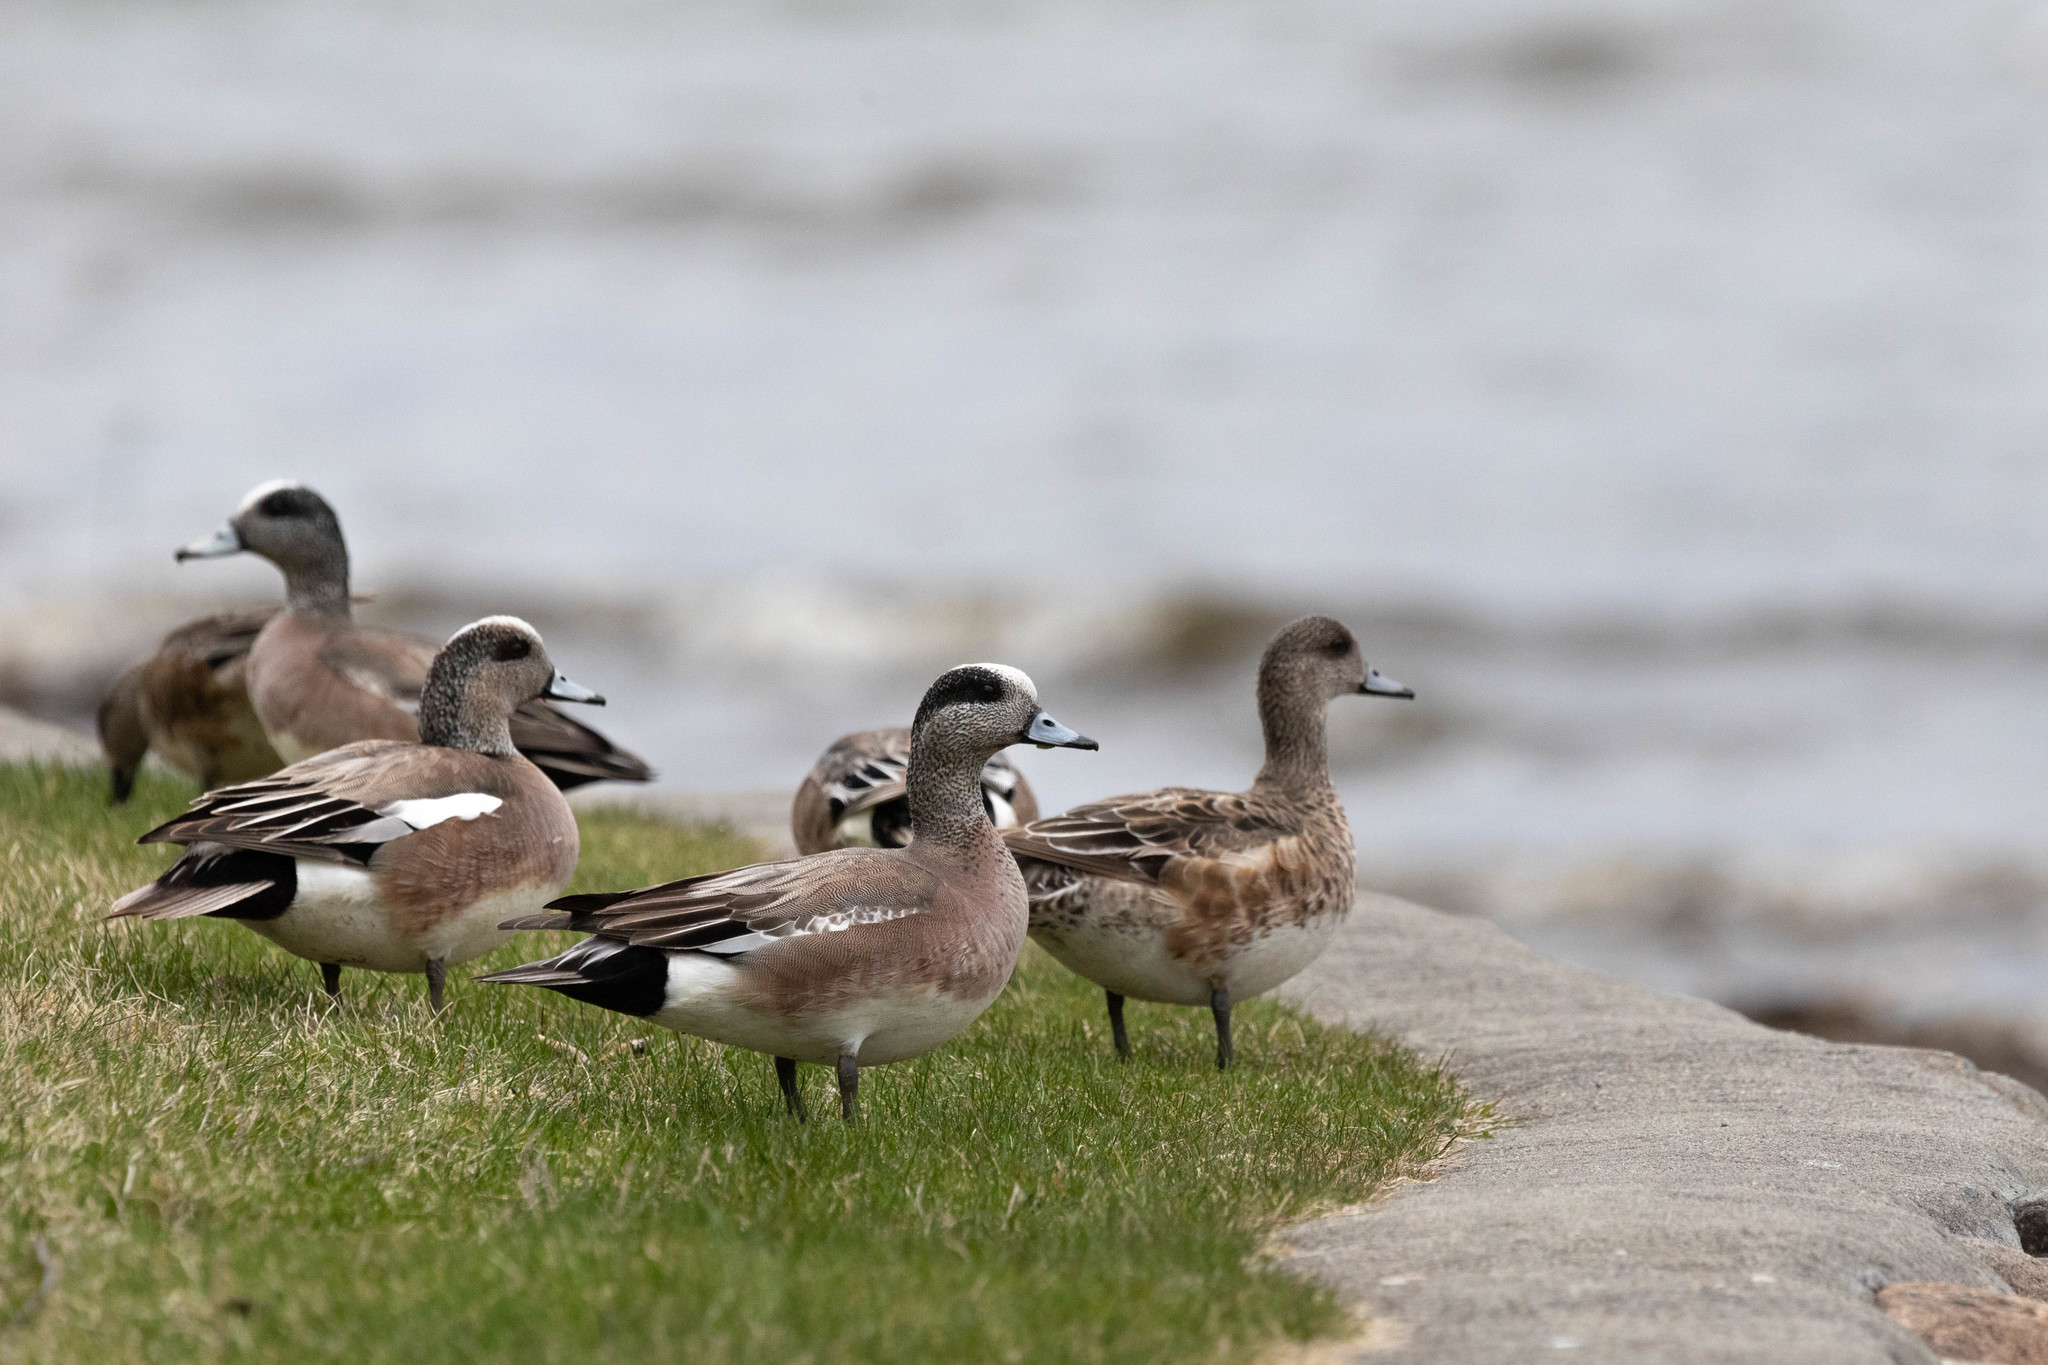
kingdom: Animalia
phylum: Chordata
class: Aves
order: Anseriformes
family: Anatidae
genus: Mareca
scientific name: Mareca americana
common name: American wigeon
